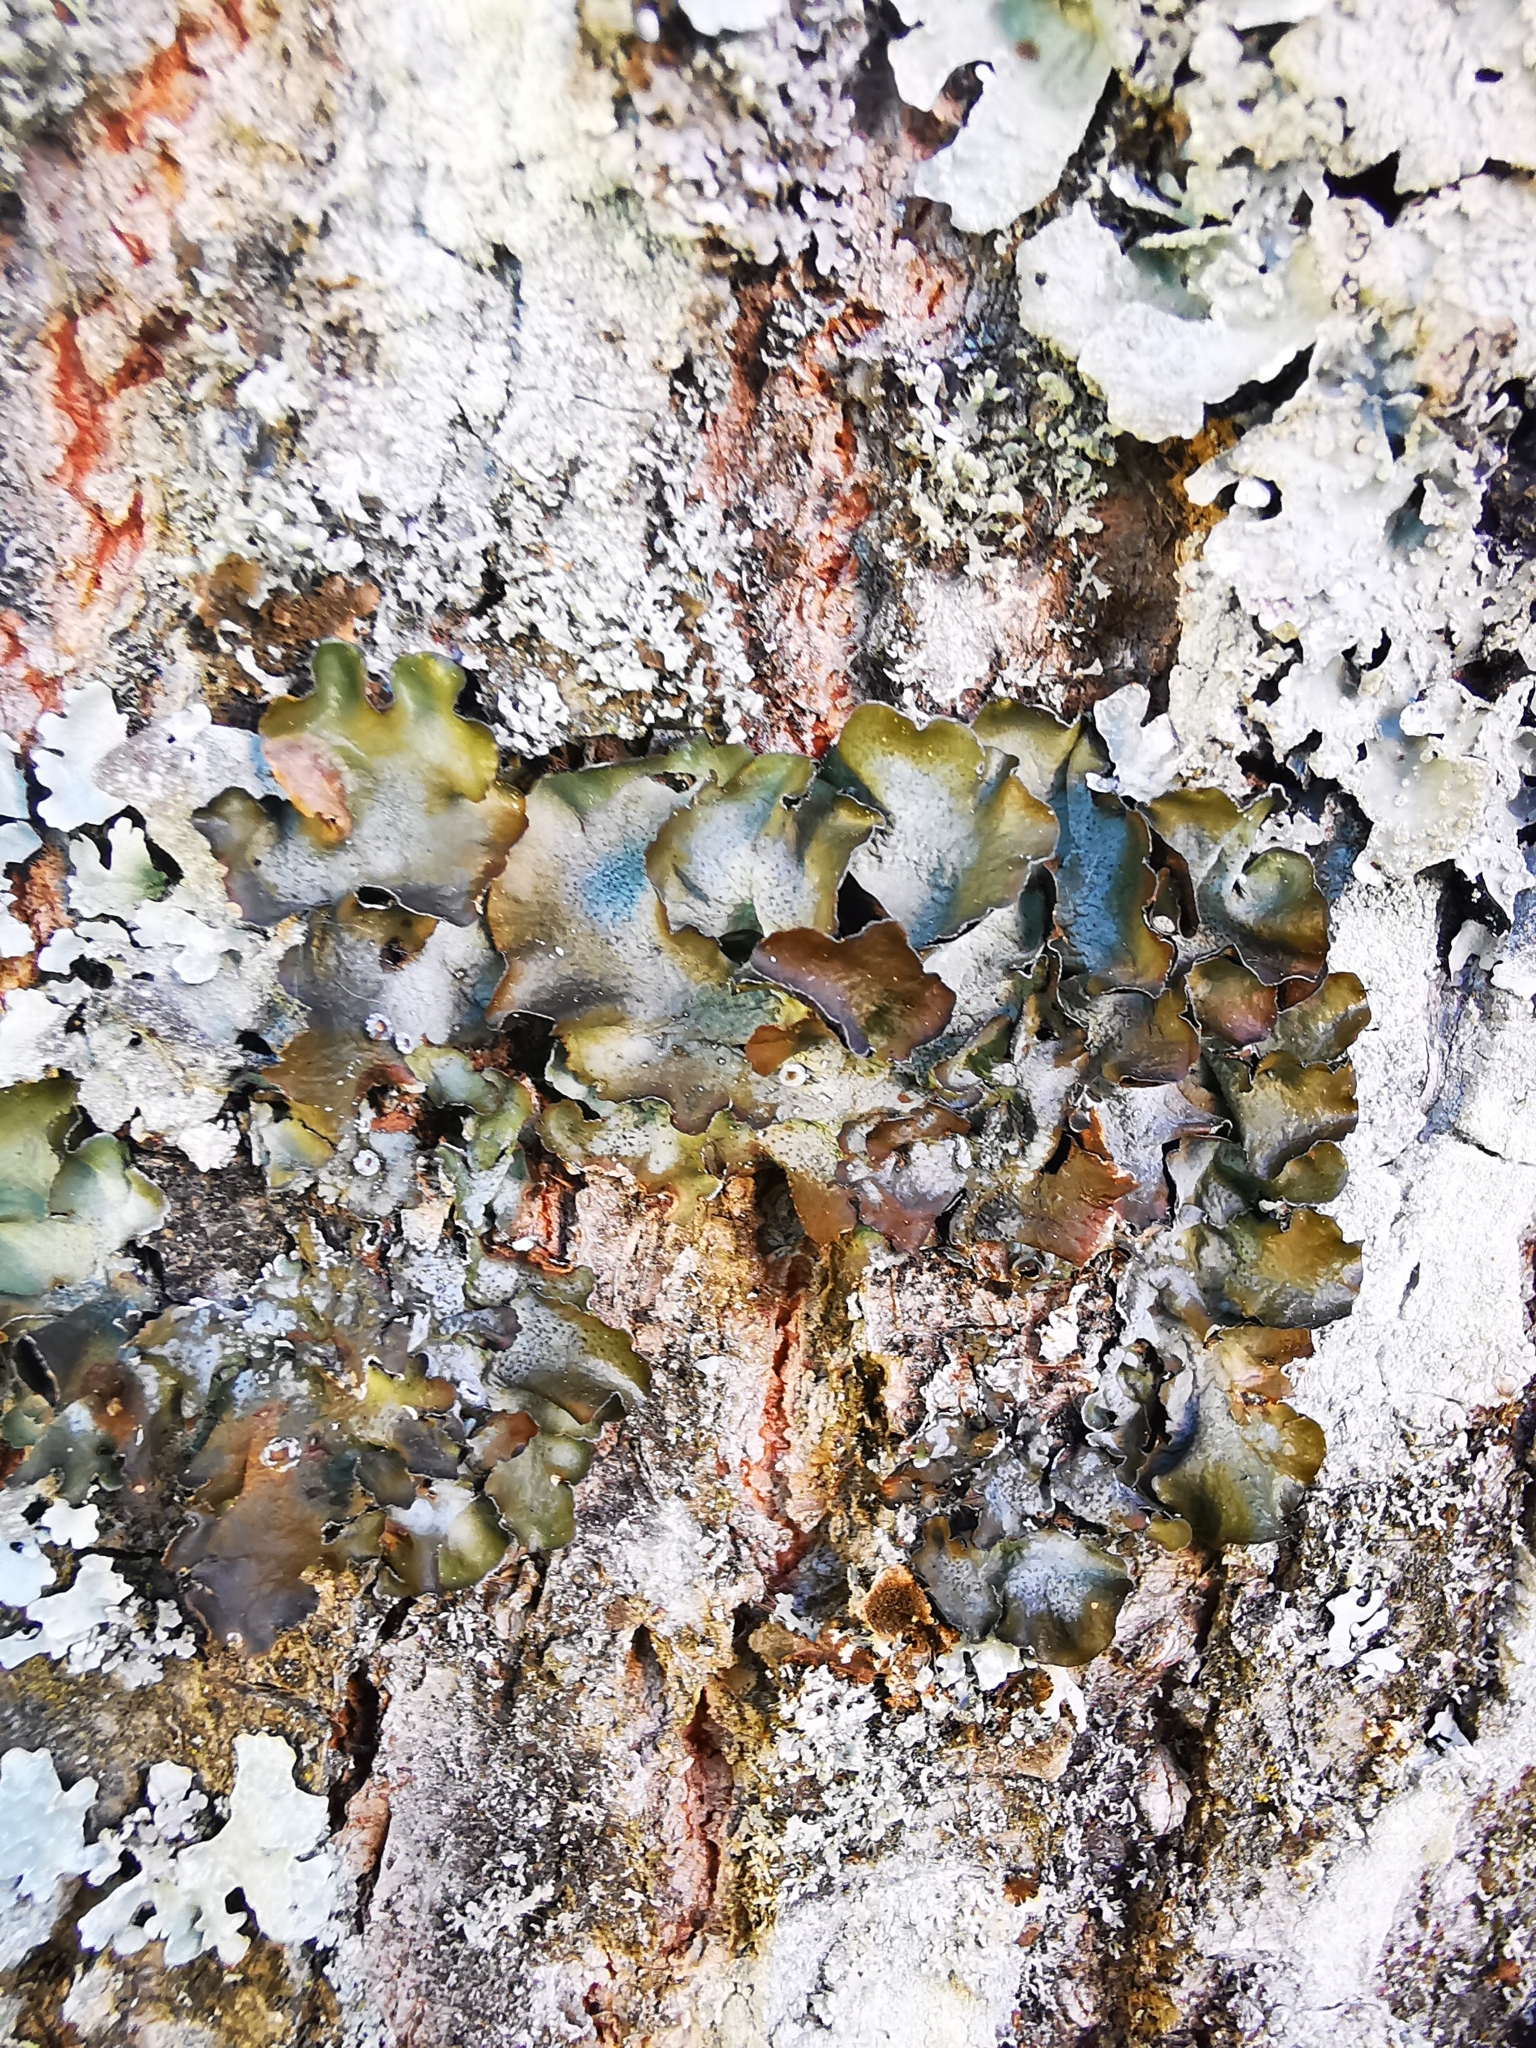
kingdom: Fungi
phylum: Ascomycota
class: Lecanoromycetes
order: Lecanorales
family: Parmeliaceae
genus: Pleurosticta
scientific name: Pleurosticta acetabulum
